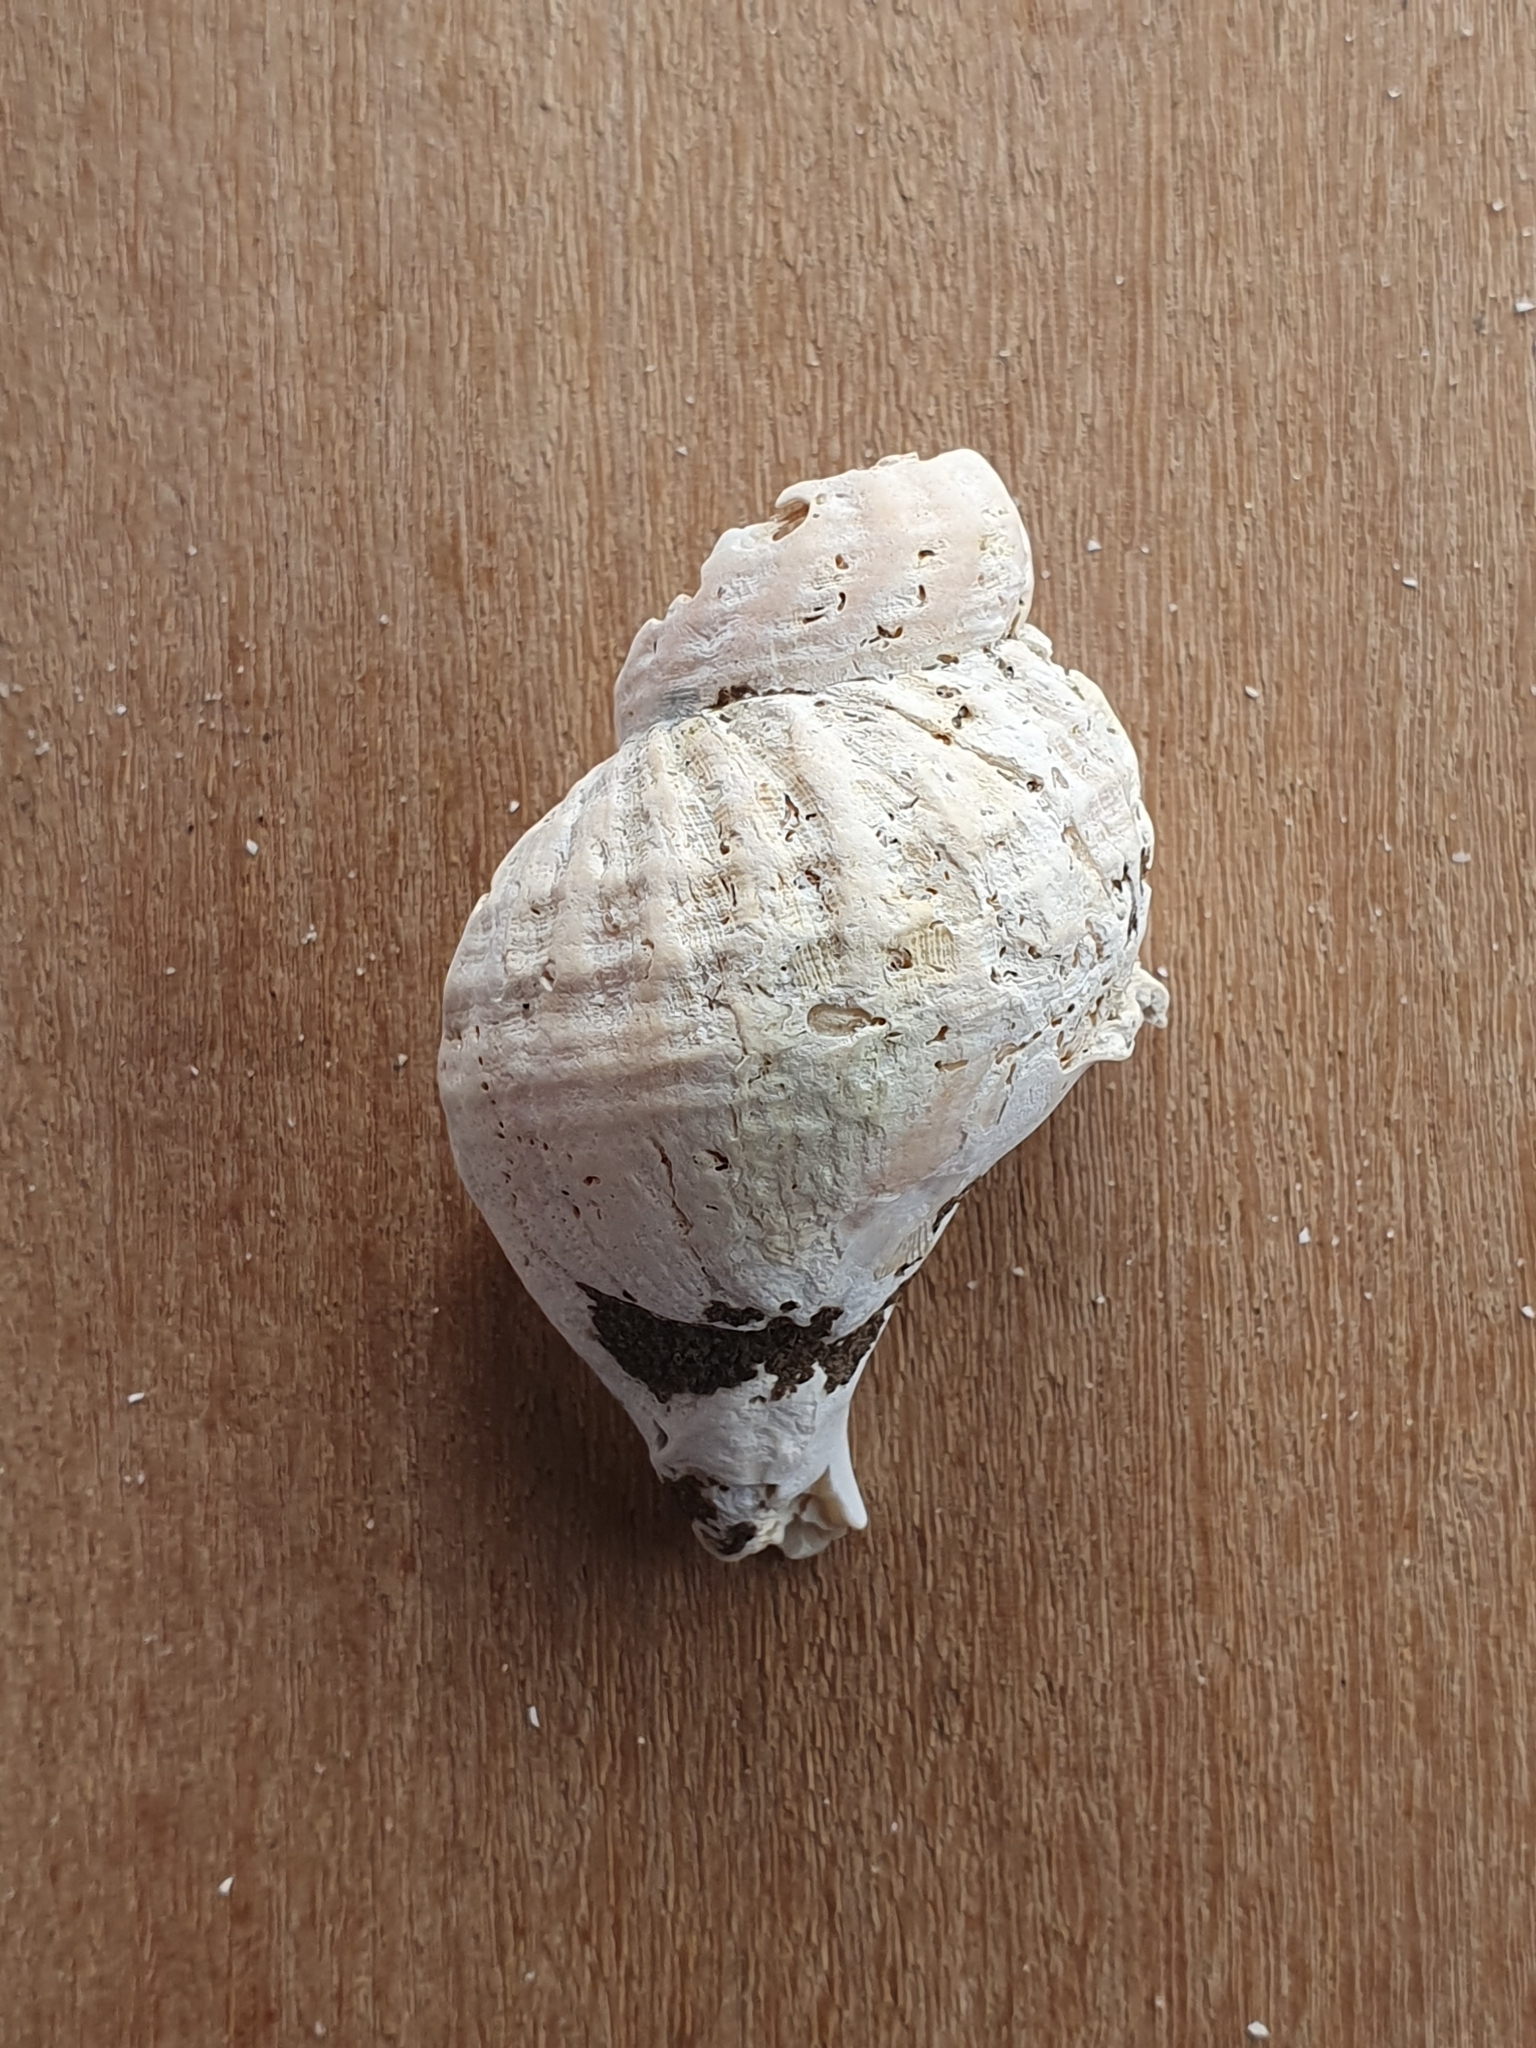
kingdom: Animalia
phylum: Mollusca
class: Gastropoda
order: Neogastropoda
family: Buccinidae
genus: Buccinum
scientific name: Buccinum undatum
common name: Common whelk
